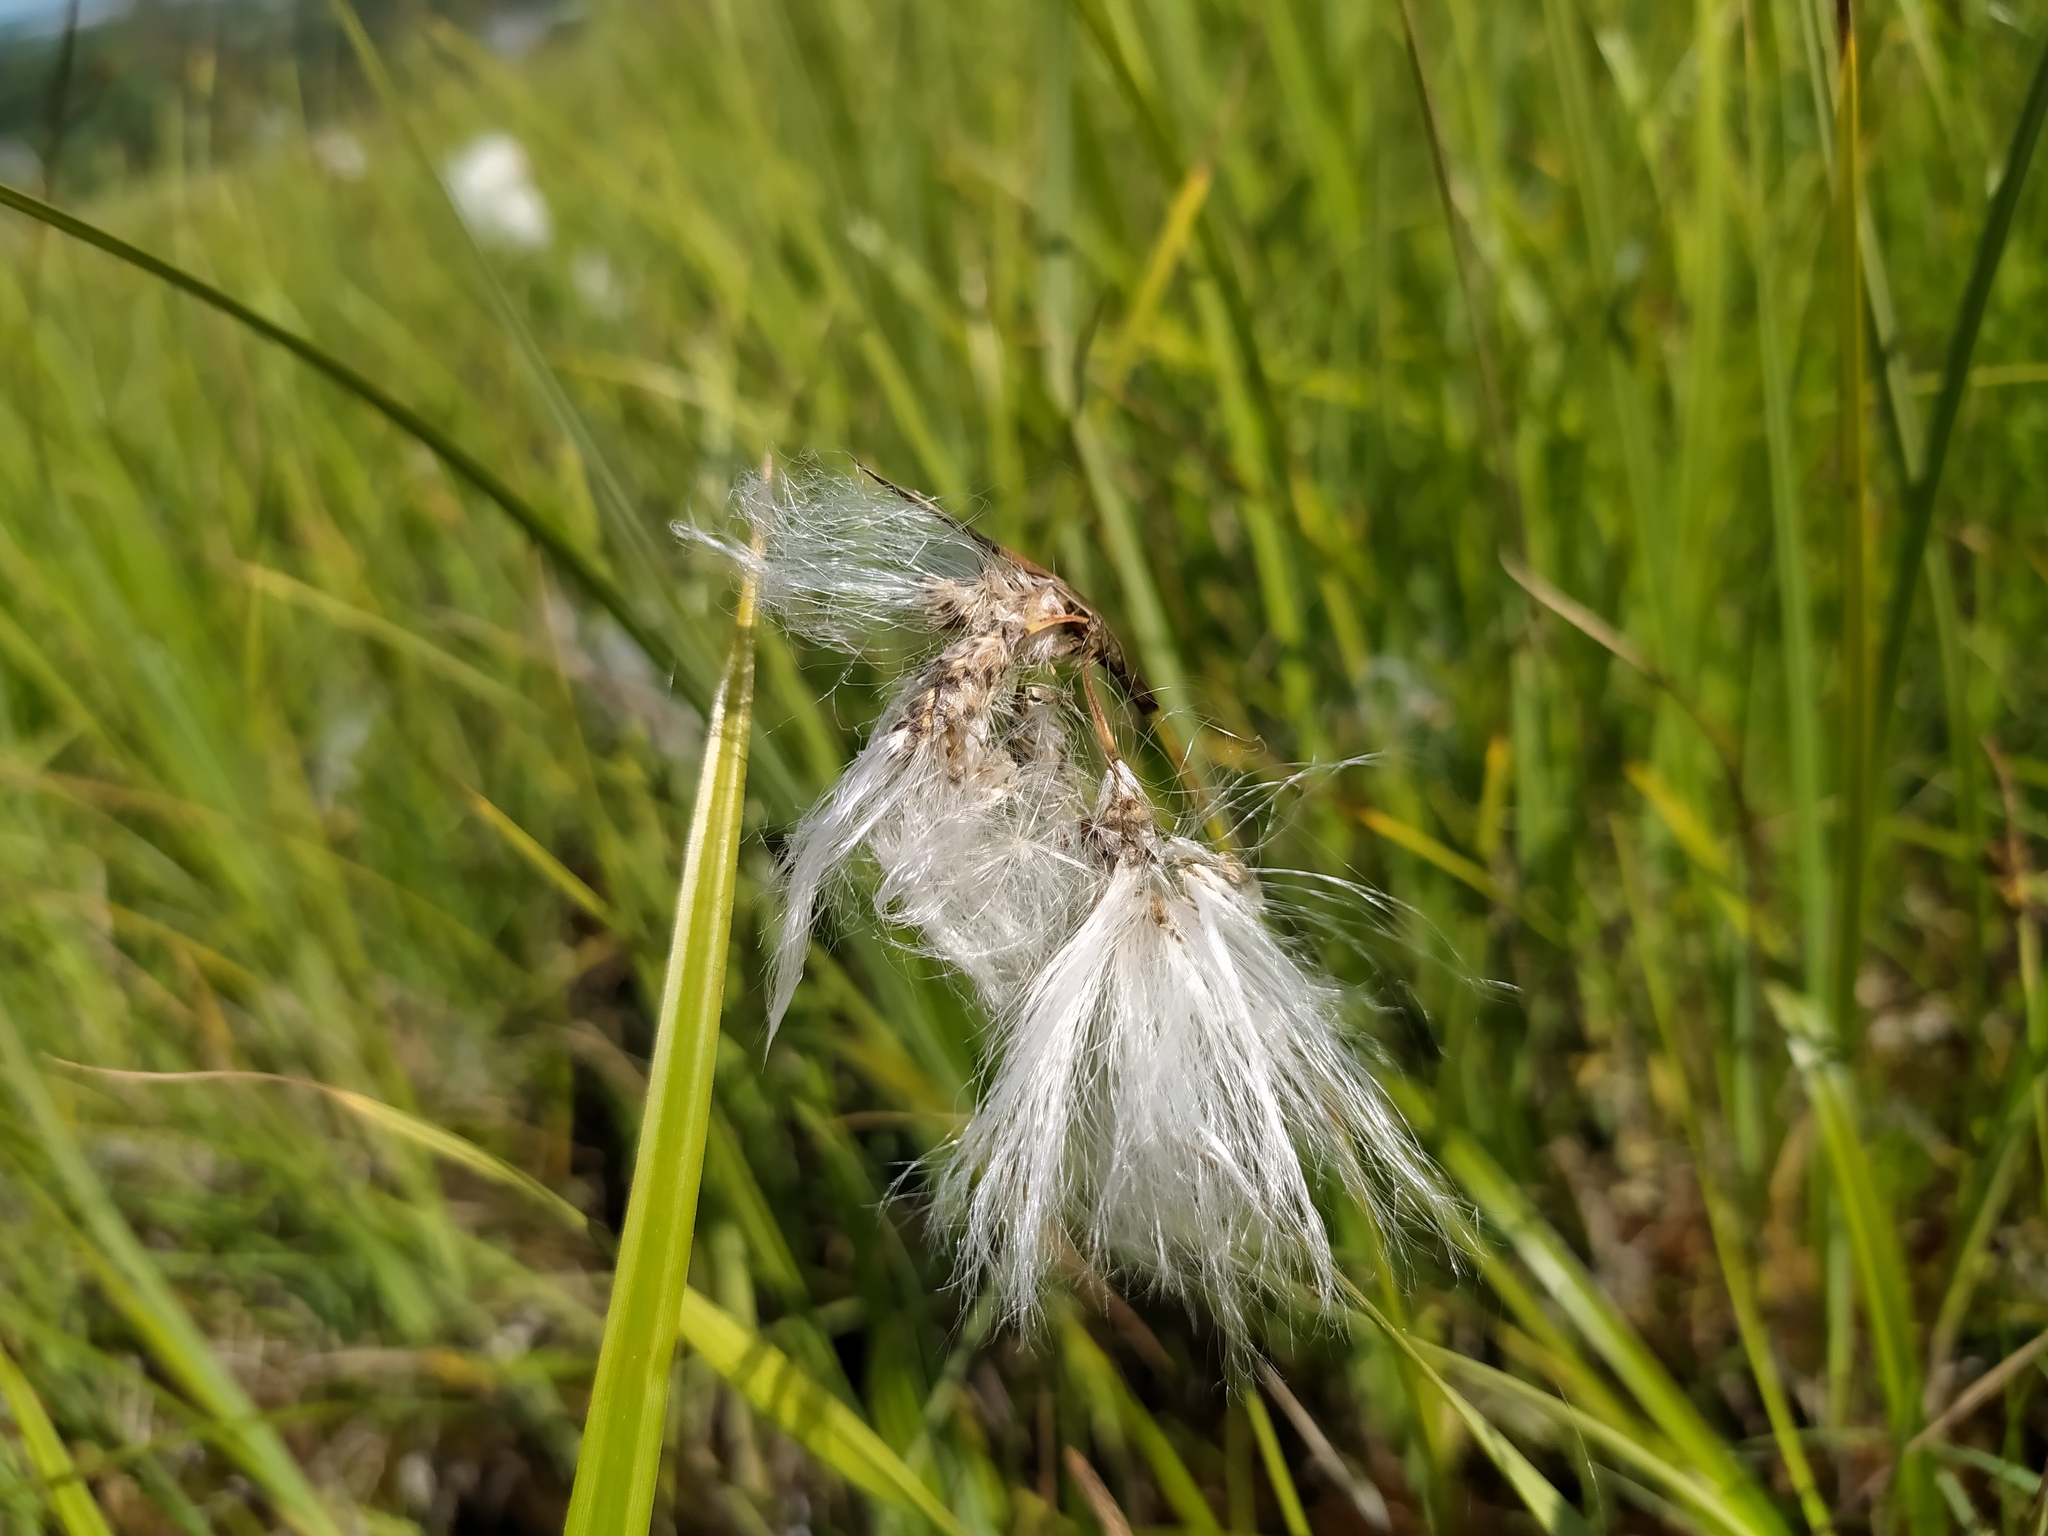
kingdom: Plantae
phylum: Tracheophyta
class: Liliopsida
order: Poales
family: Cyperaceae
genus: Eriophorum
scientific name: Eriophorum angustifolium
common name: Common cottongrass
